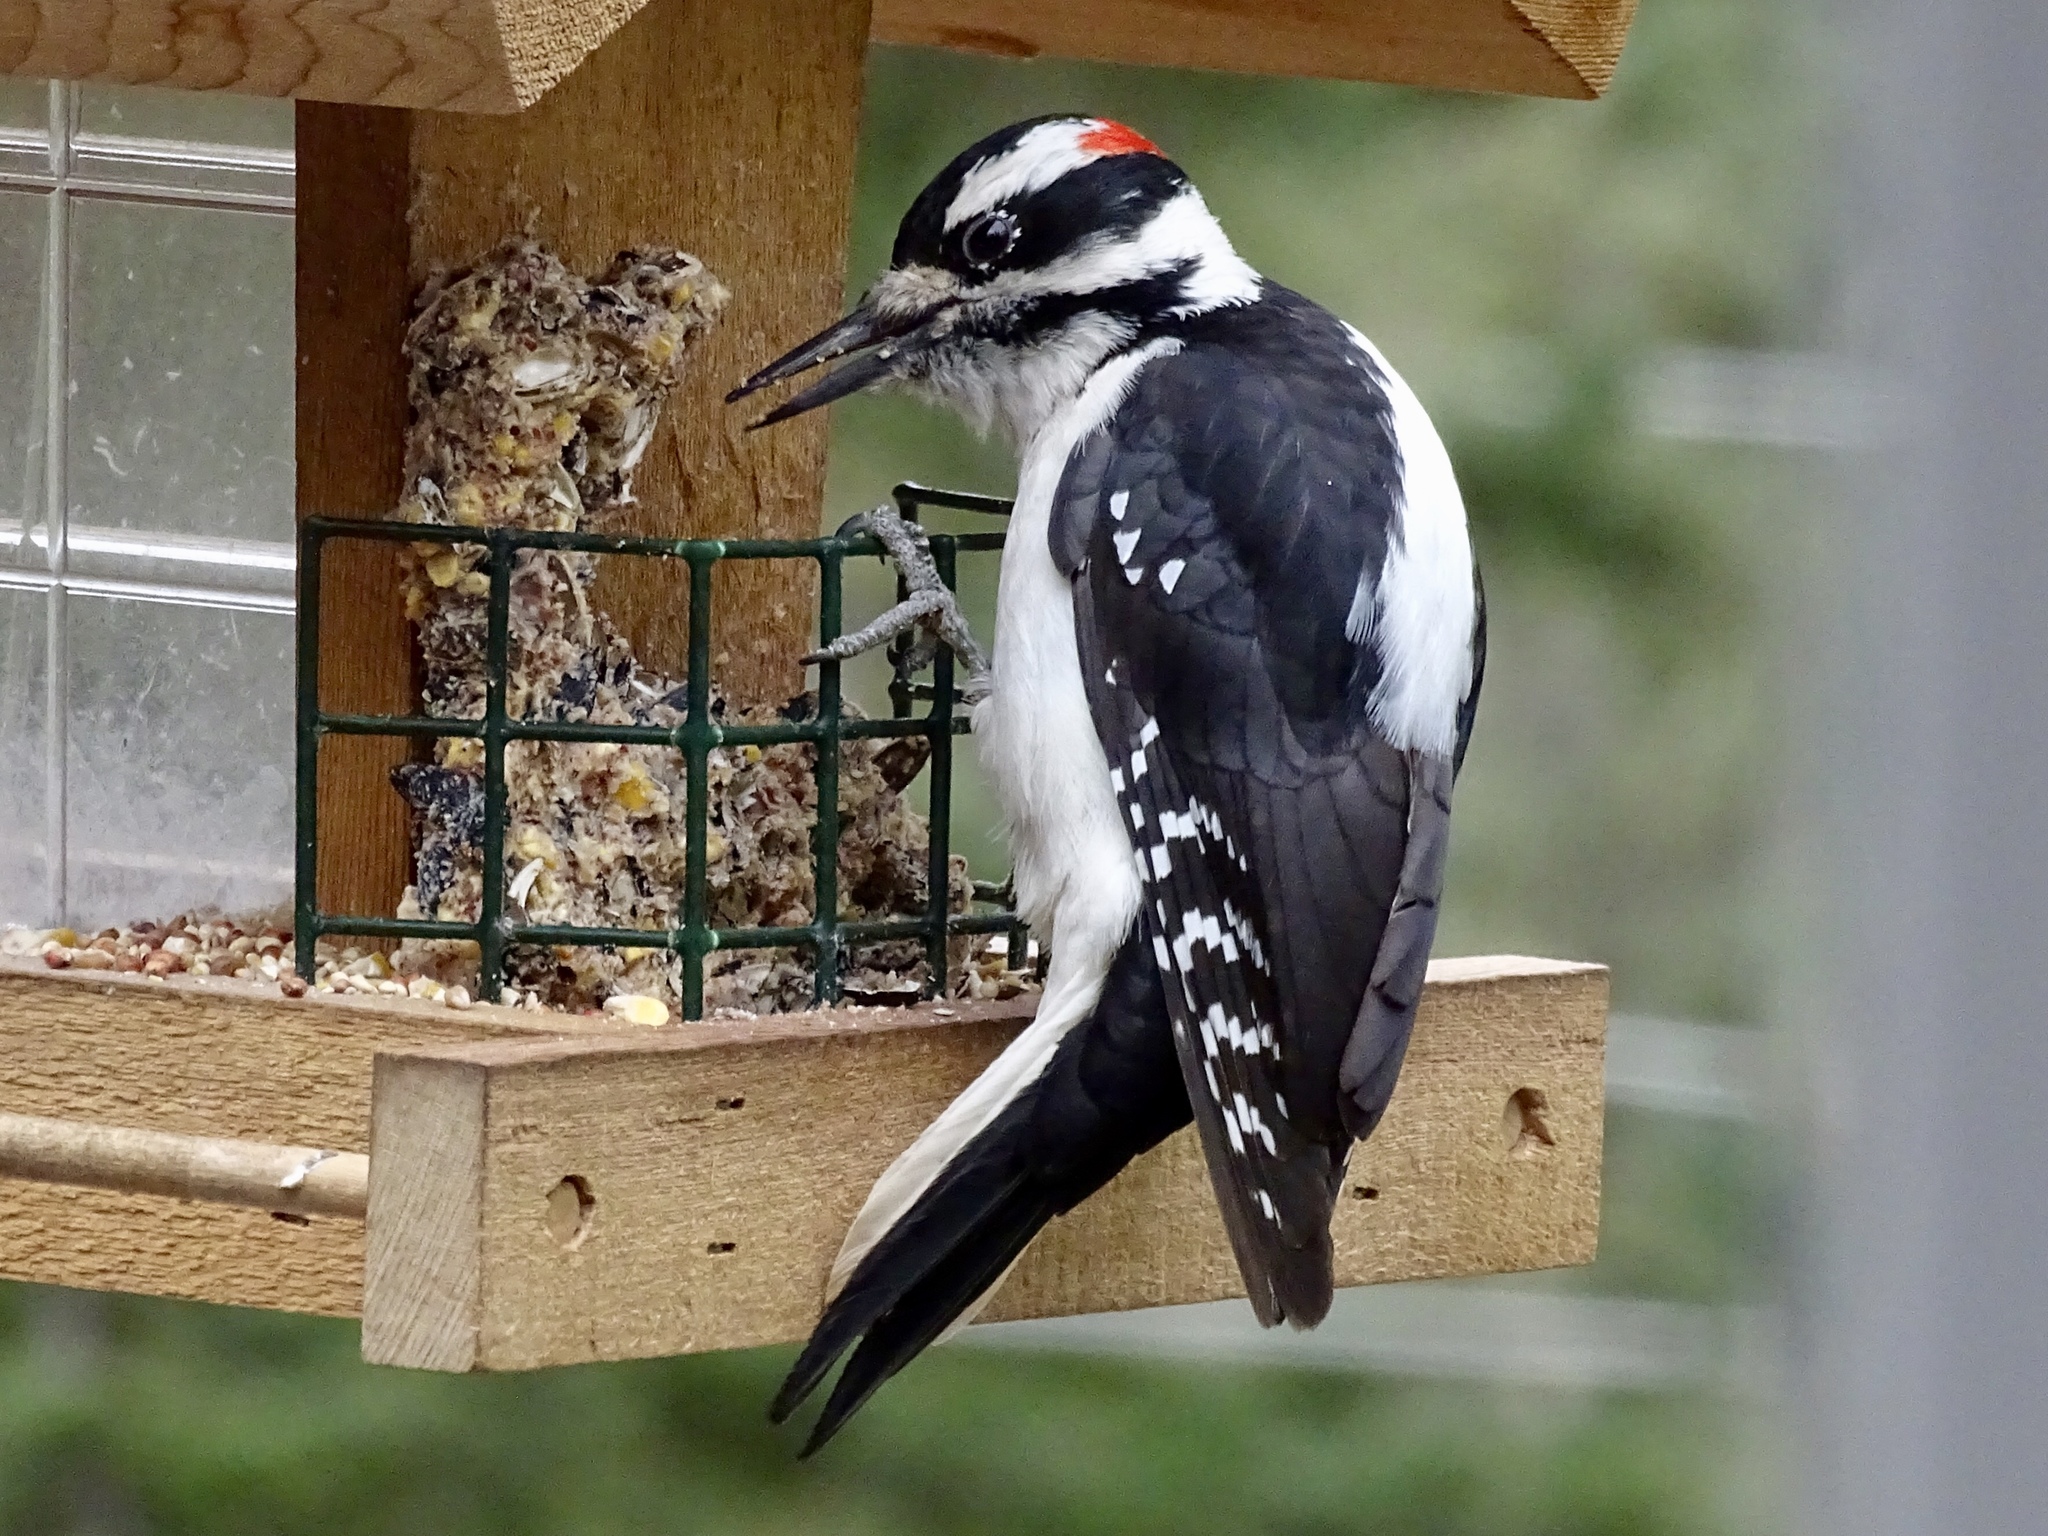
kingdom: Animalia
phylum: Chordata
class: Aves
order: Piciformes
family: Picidae
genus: Leuconotopicus
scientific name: Leuconotopicus villosus
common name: Hairy woodpecker
